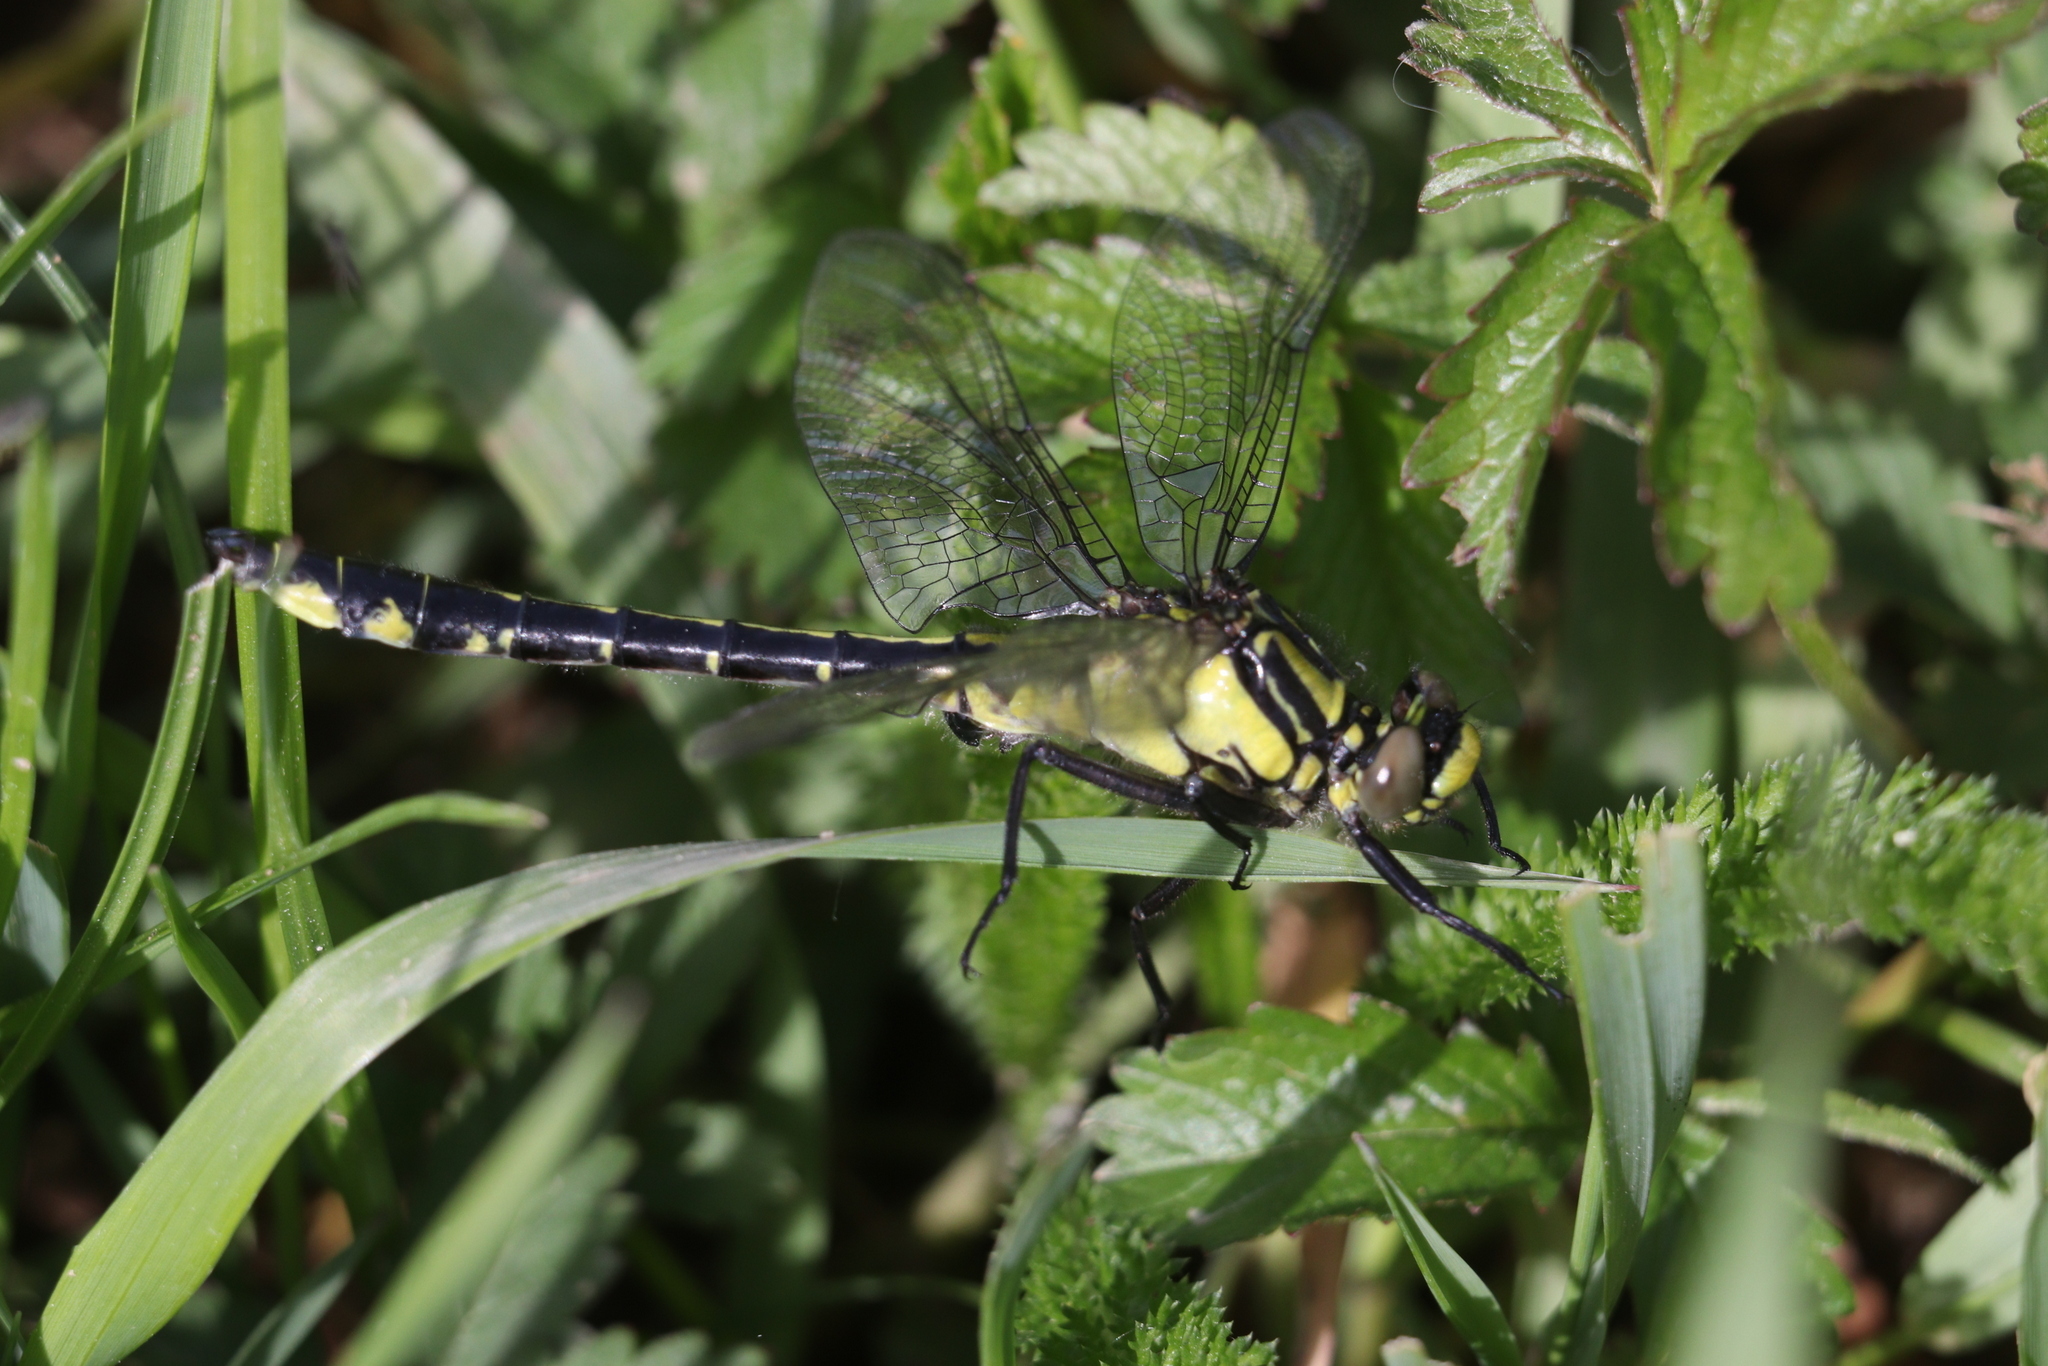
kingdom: Animalia
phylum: Arthropoda
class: Insecta
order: Odonata
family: Gomphidae
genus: Gomphus
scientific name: Gomphus vulgatissimus
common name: Club-tailed dragonfly
